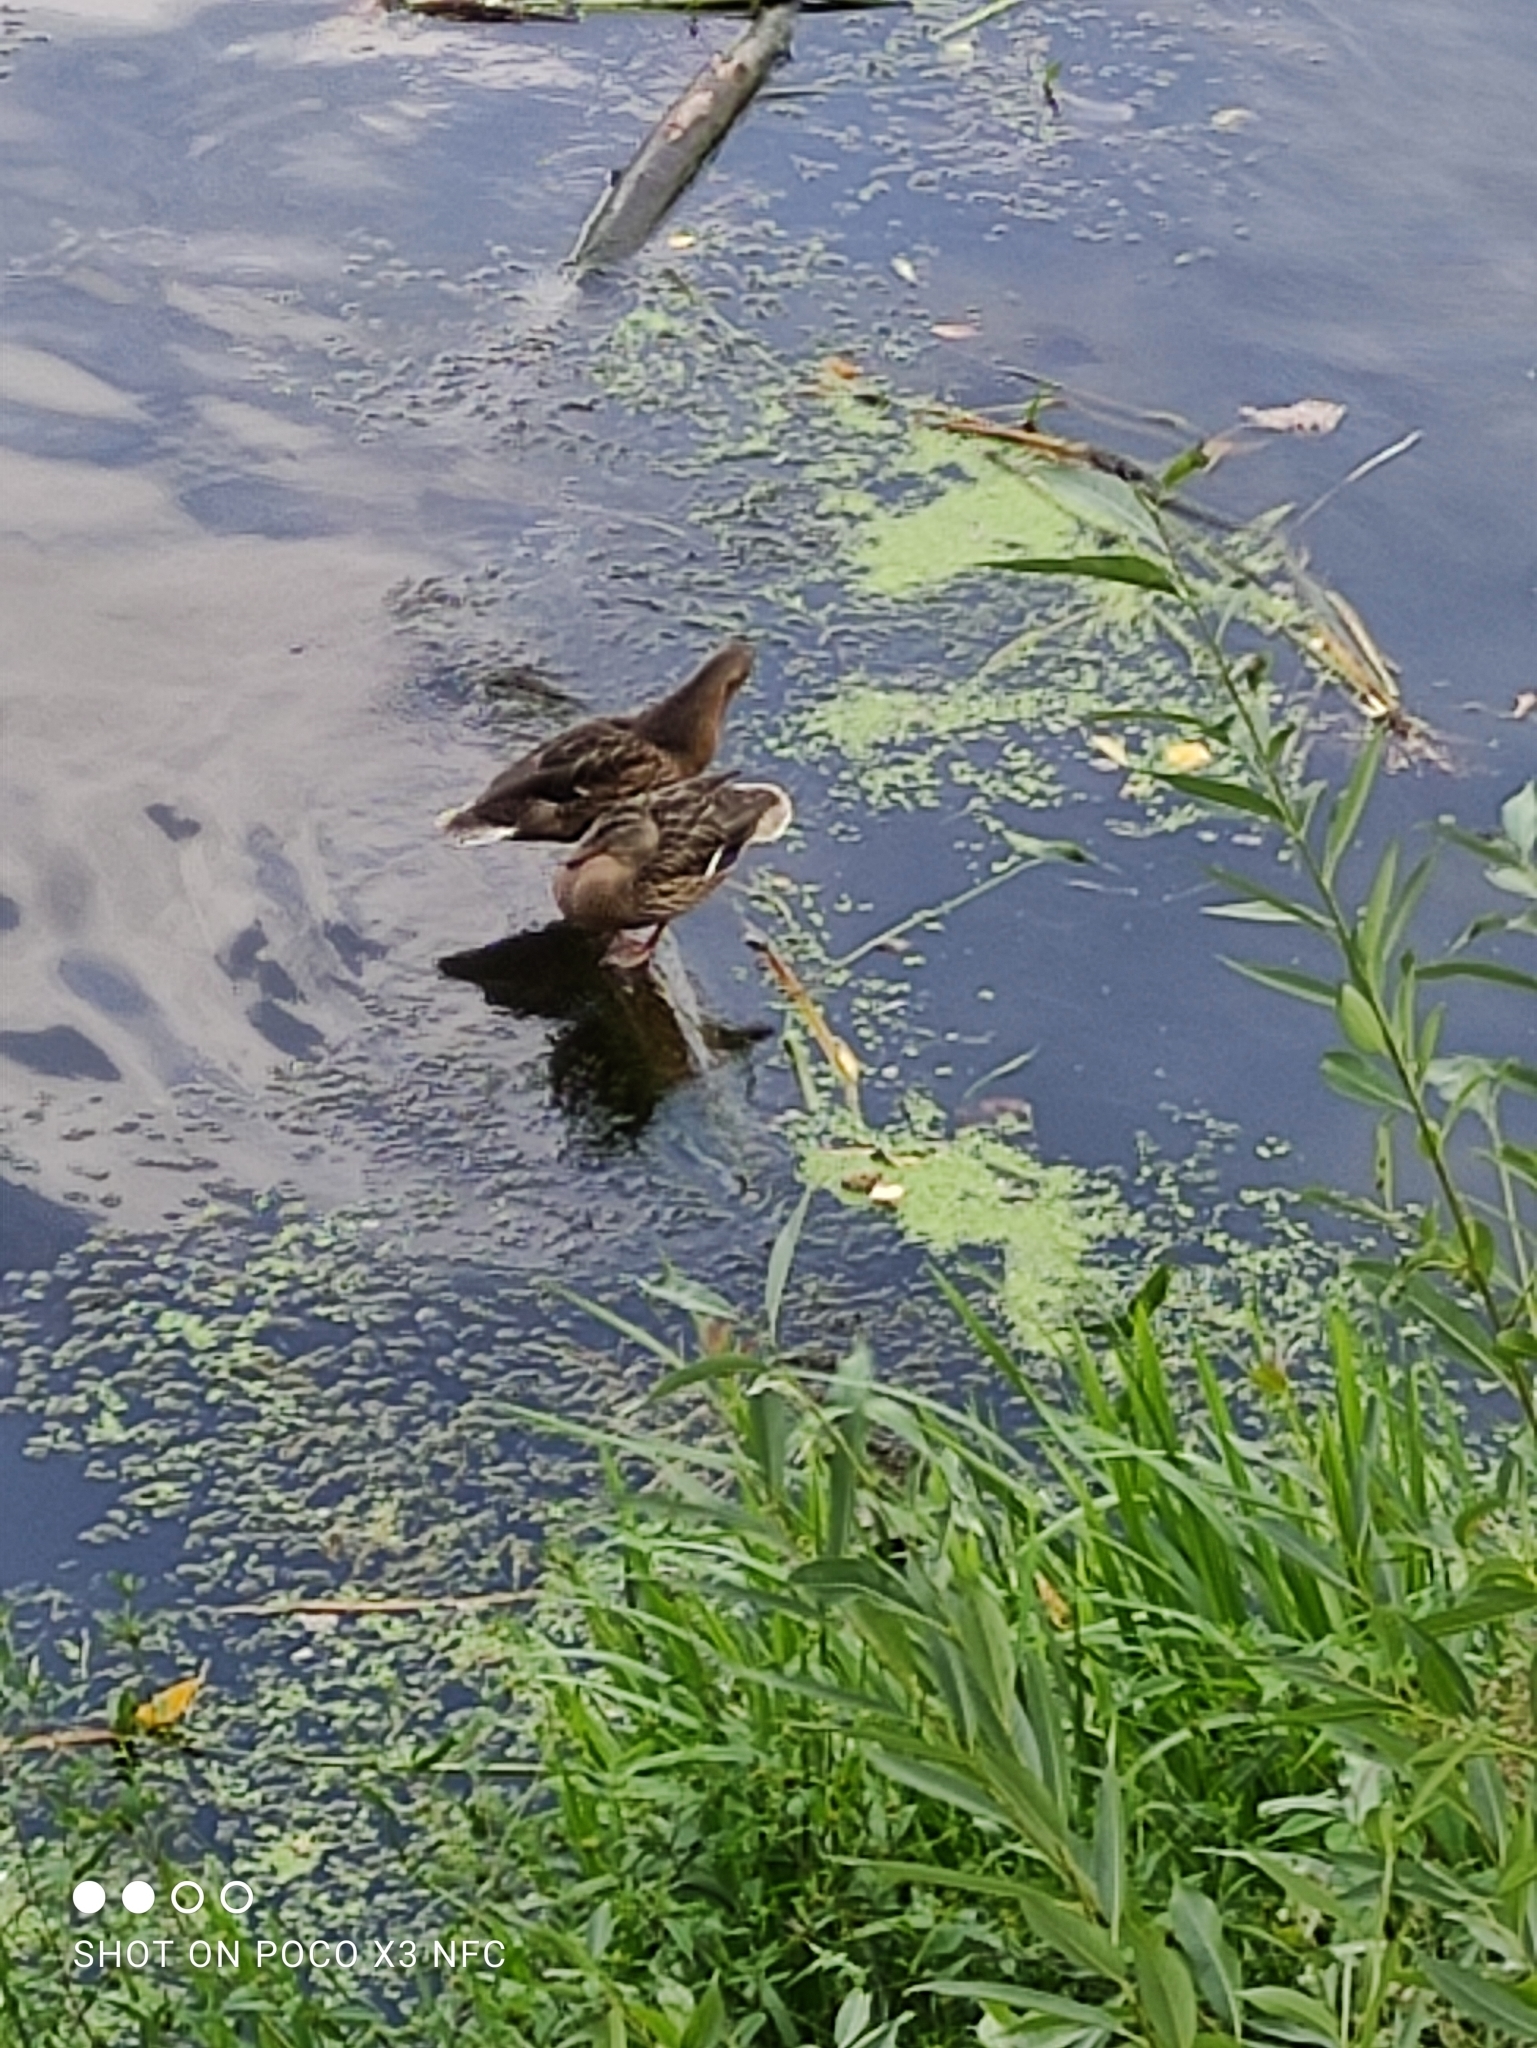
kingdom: Animalia
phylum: Chordata
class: Aves
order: Anseriformes
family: Anatidae
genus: Anas
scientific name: Anas platyrhynchos
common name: Mallard
